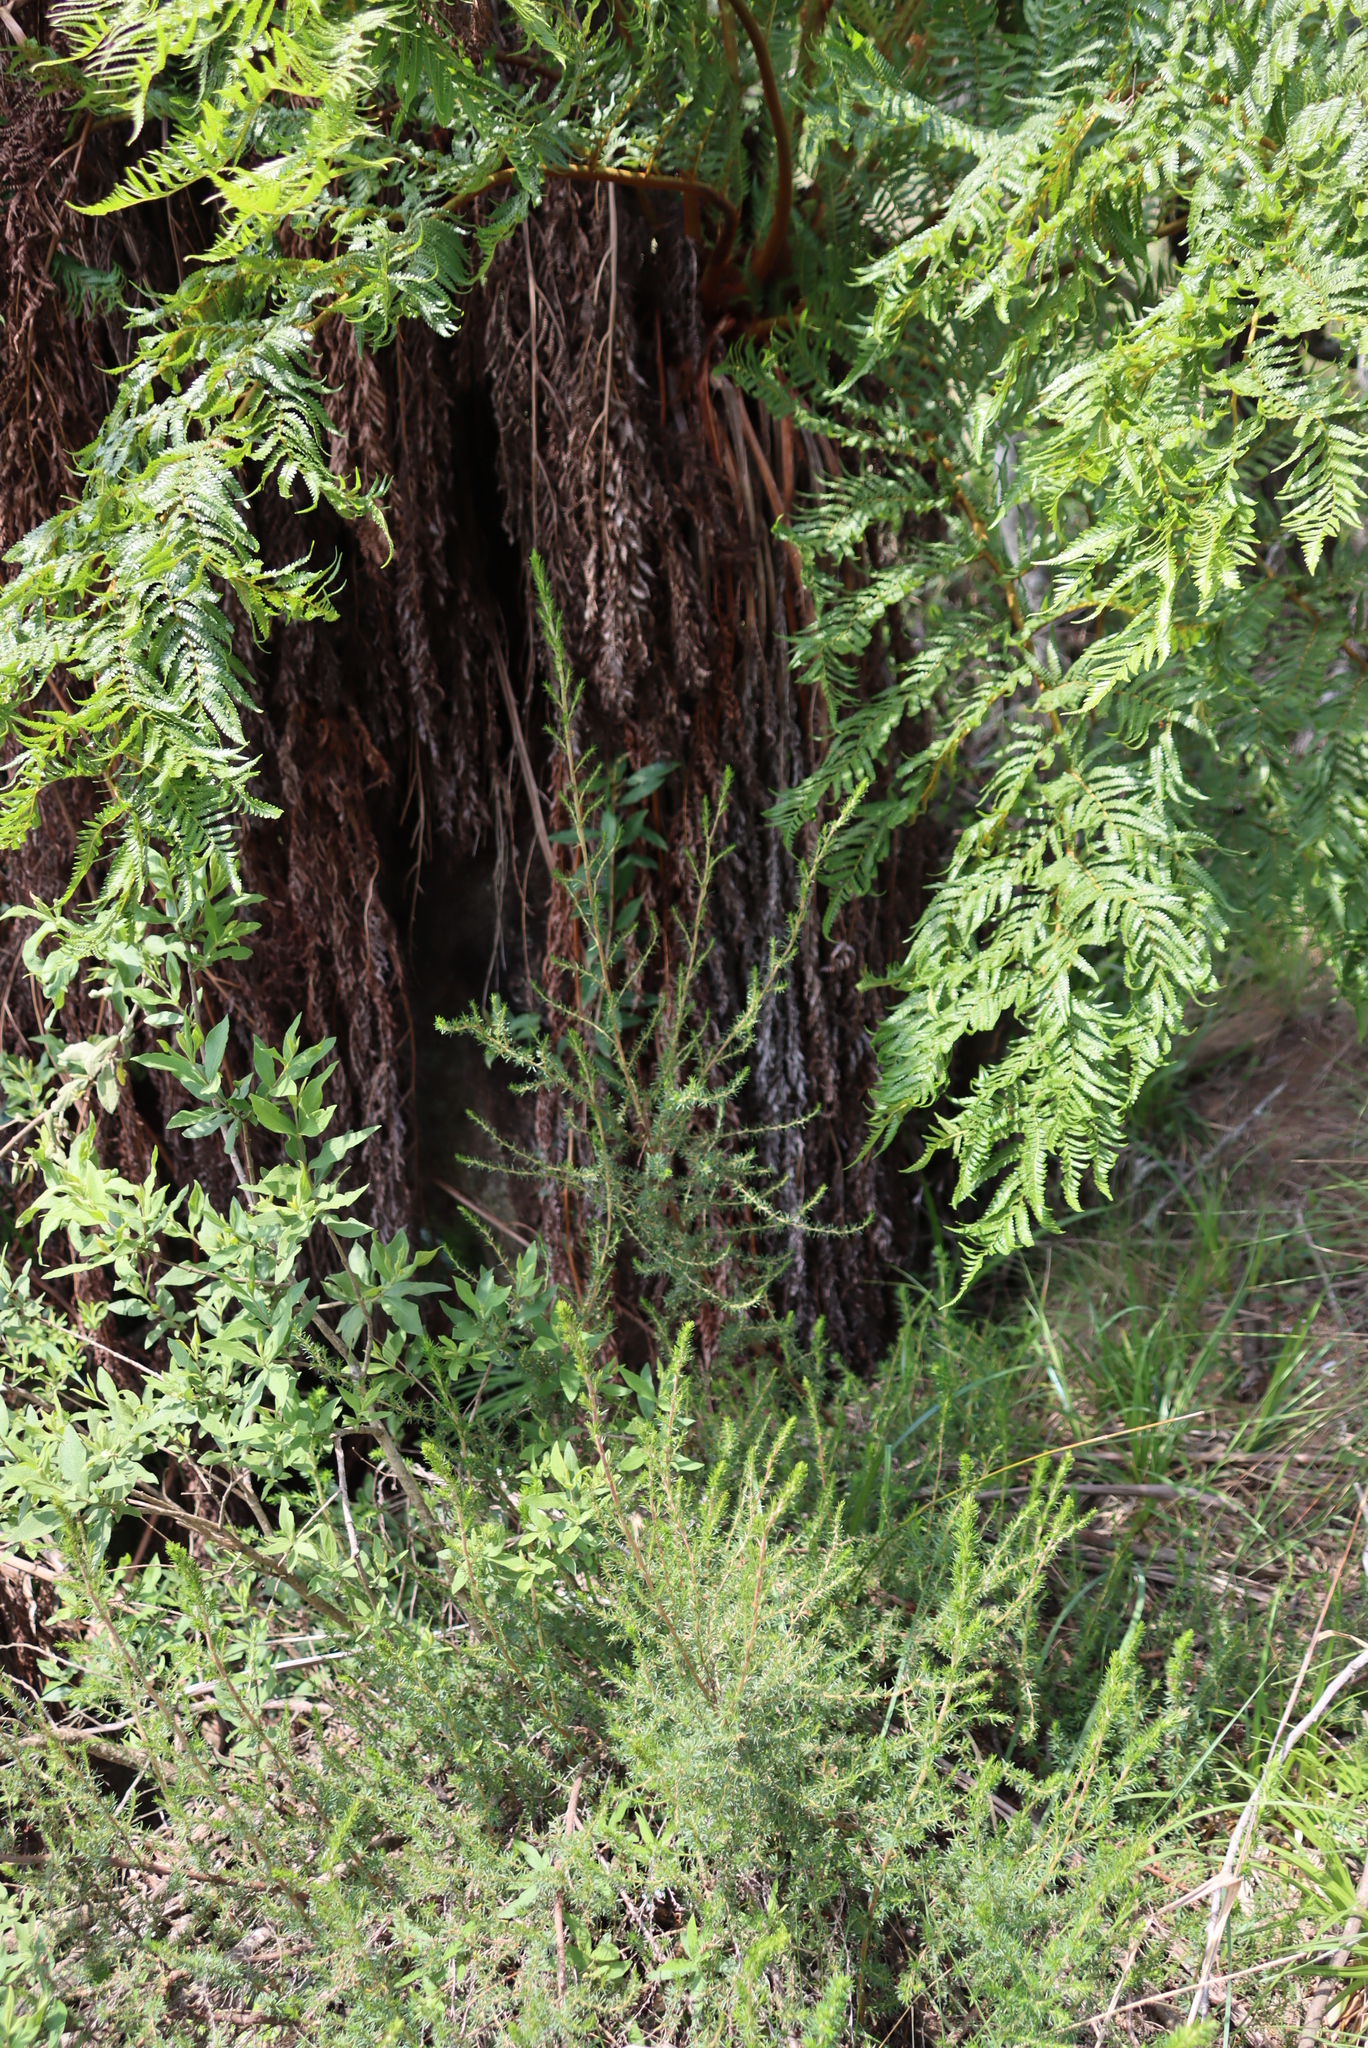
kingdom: Plantae
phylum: Tracheophyta
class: Magnoliopsida
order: Fabales
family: Fabaceae
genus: Acacia
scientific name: Acacia decurrens
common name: Green wattle
